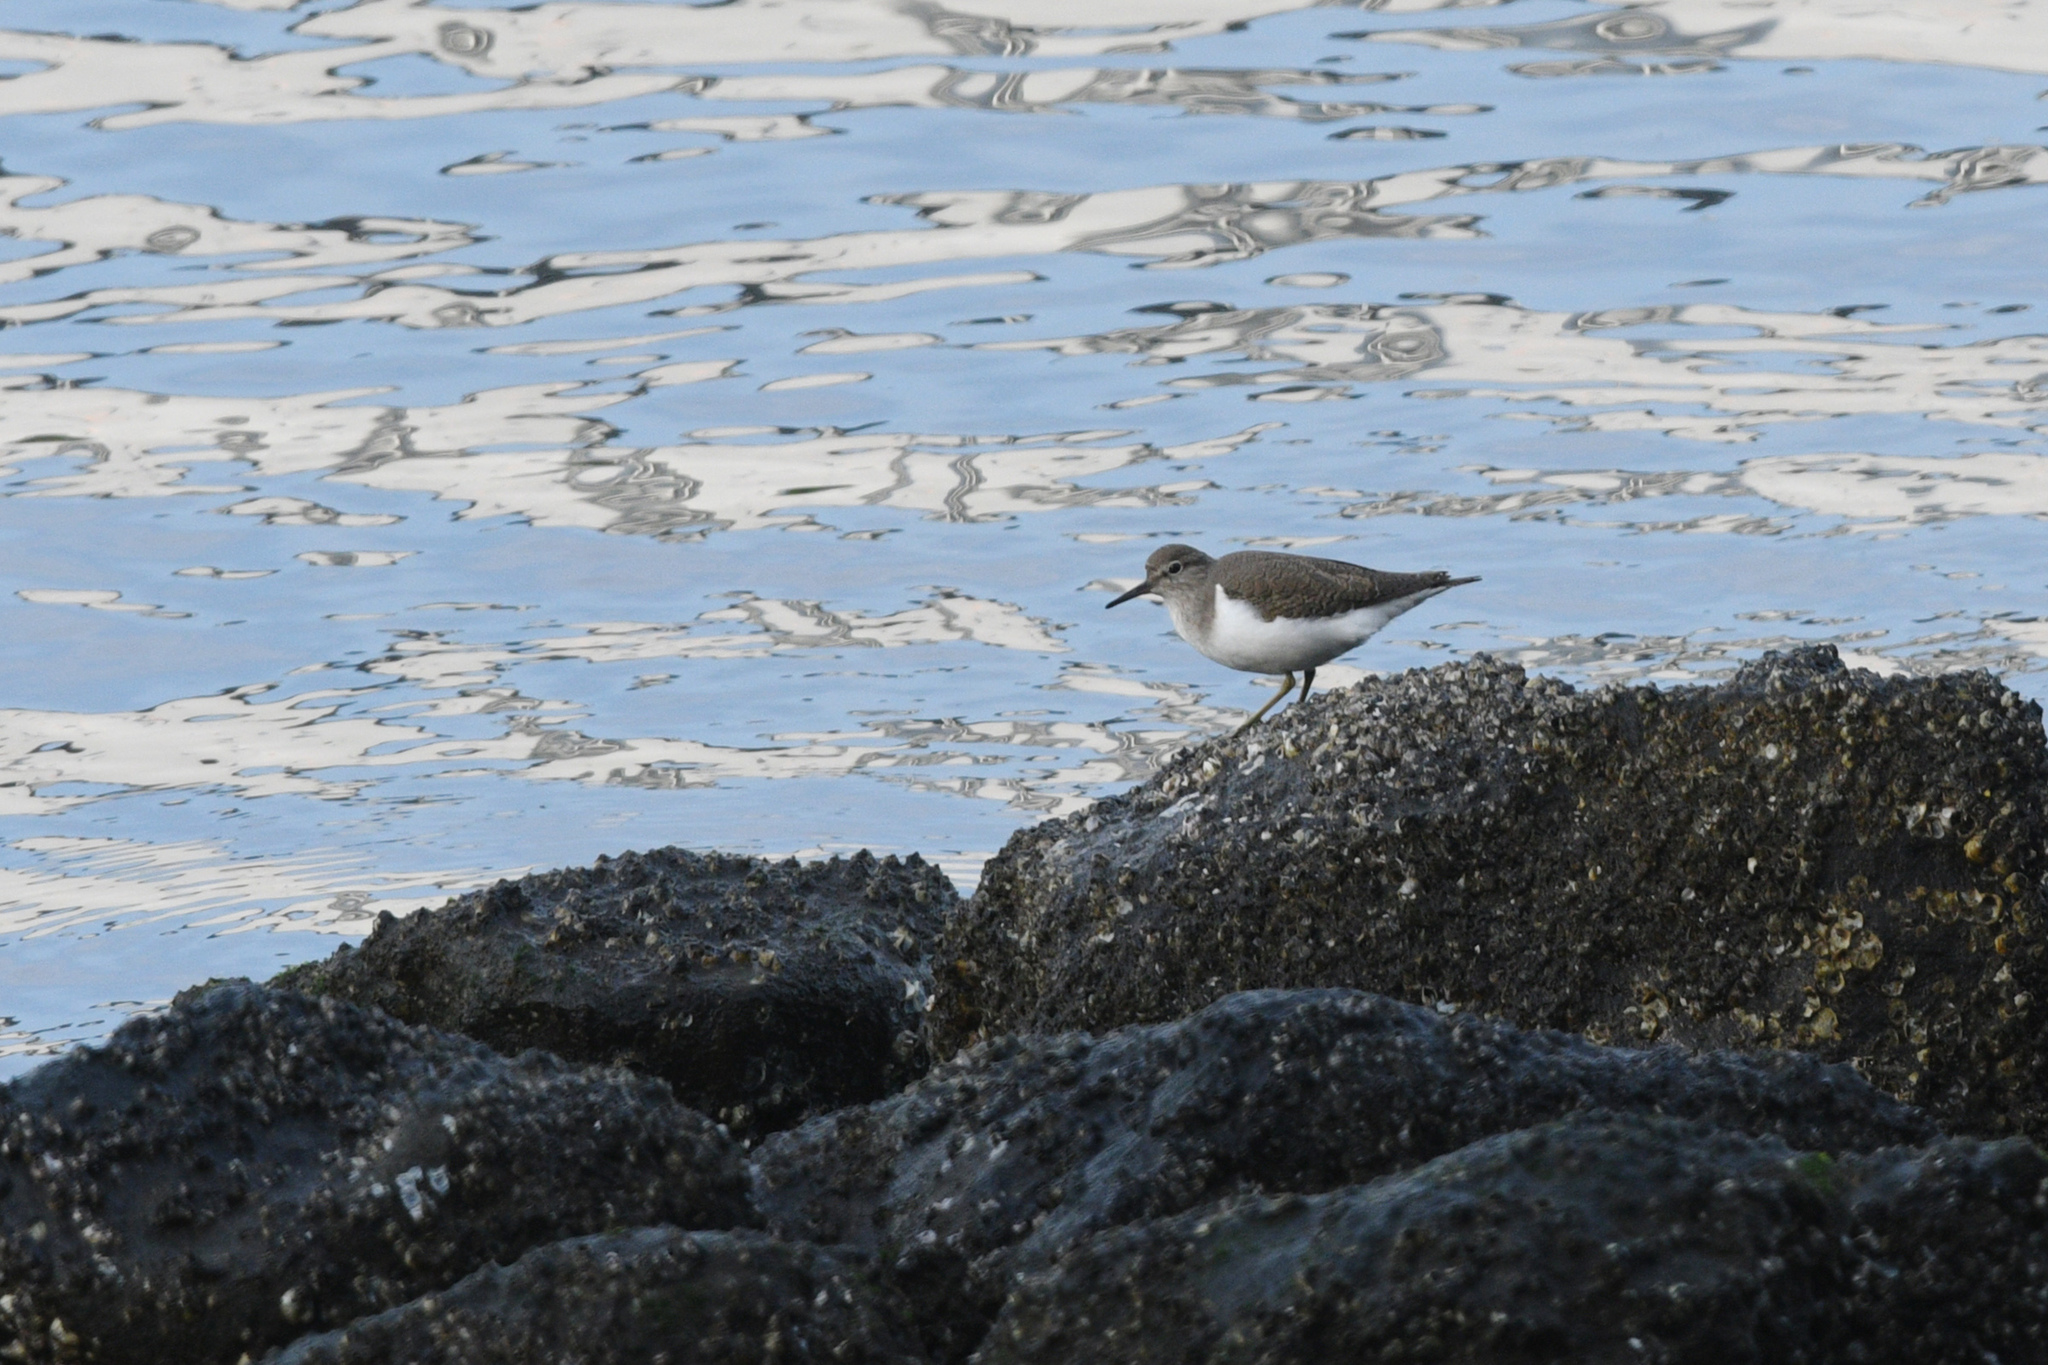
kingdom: Animalia
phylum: Chordata
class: Aves
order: Charadriiformes
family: Scolopacidae
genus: Actitis
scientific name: Actitis hypoleucos
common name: Common sandpiper
